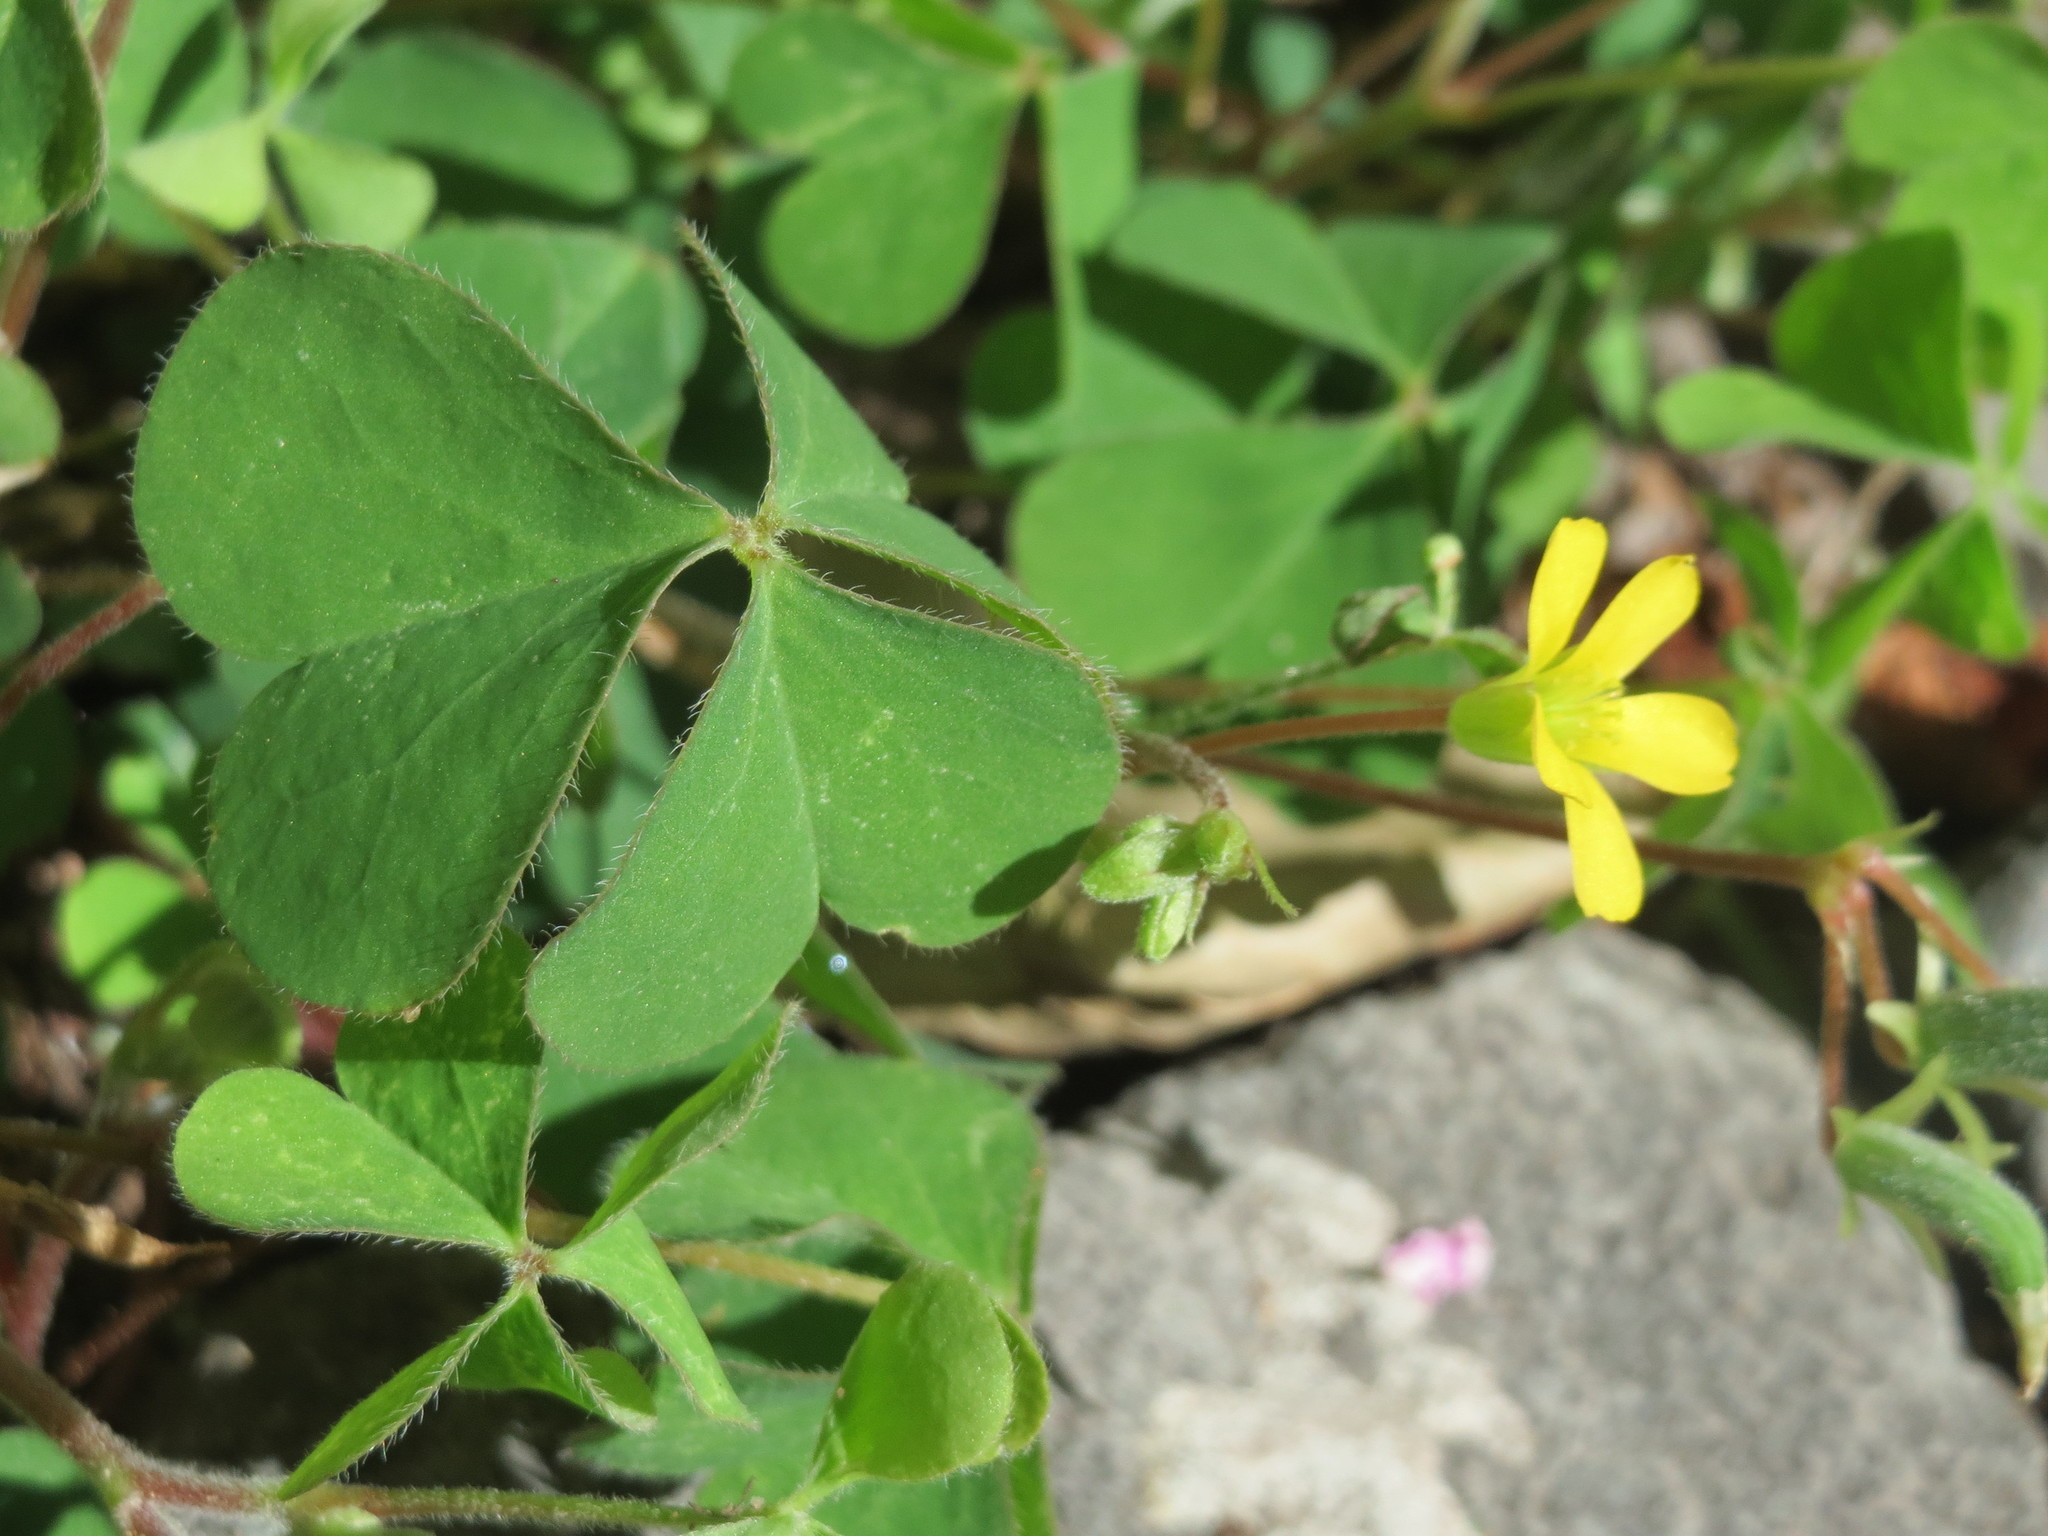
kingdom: Plantae
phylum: Tracheophyta
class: Magnoliopsida
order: Oxalidales
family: Oxalidaceae
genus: Oxalis
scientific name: Oxalis stricta
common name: Upright yellow-sorrel
